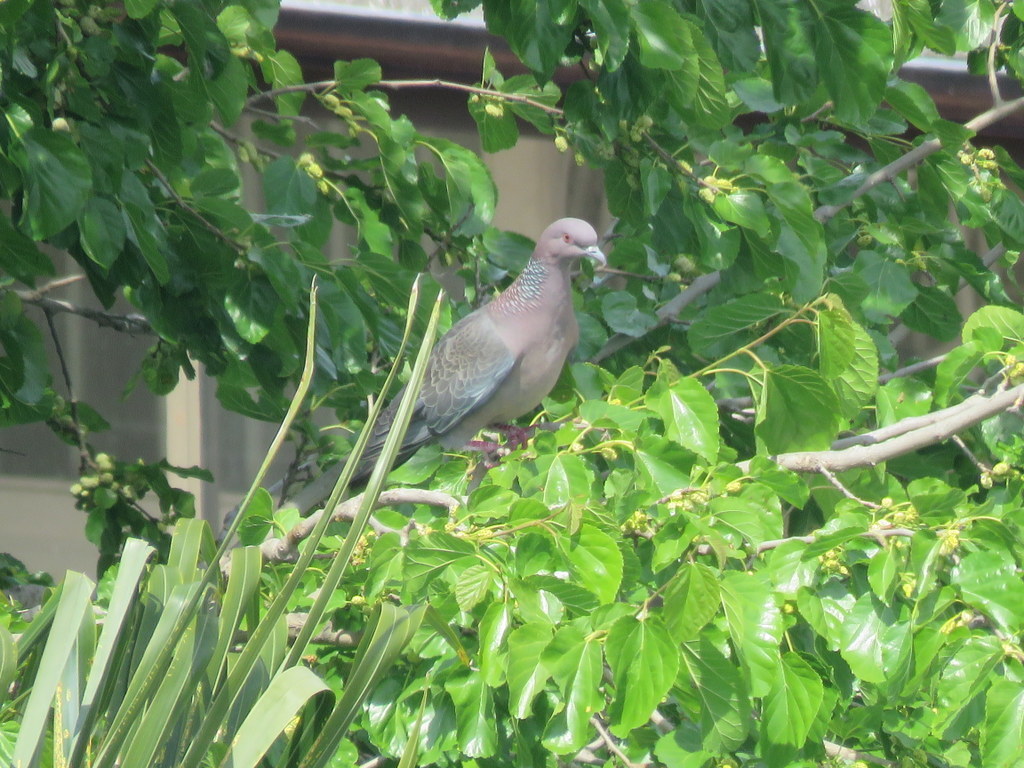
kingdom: Animalia
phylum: Chordata
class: Aves
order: Columbiformes
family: Columbidae
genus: Patagioenas
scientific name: Patagioenas picazuro
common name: Picazuro pigeon
